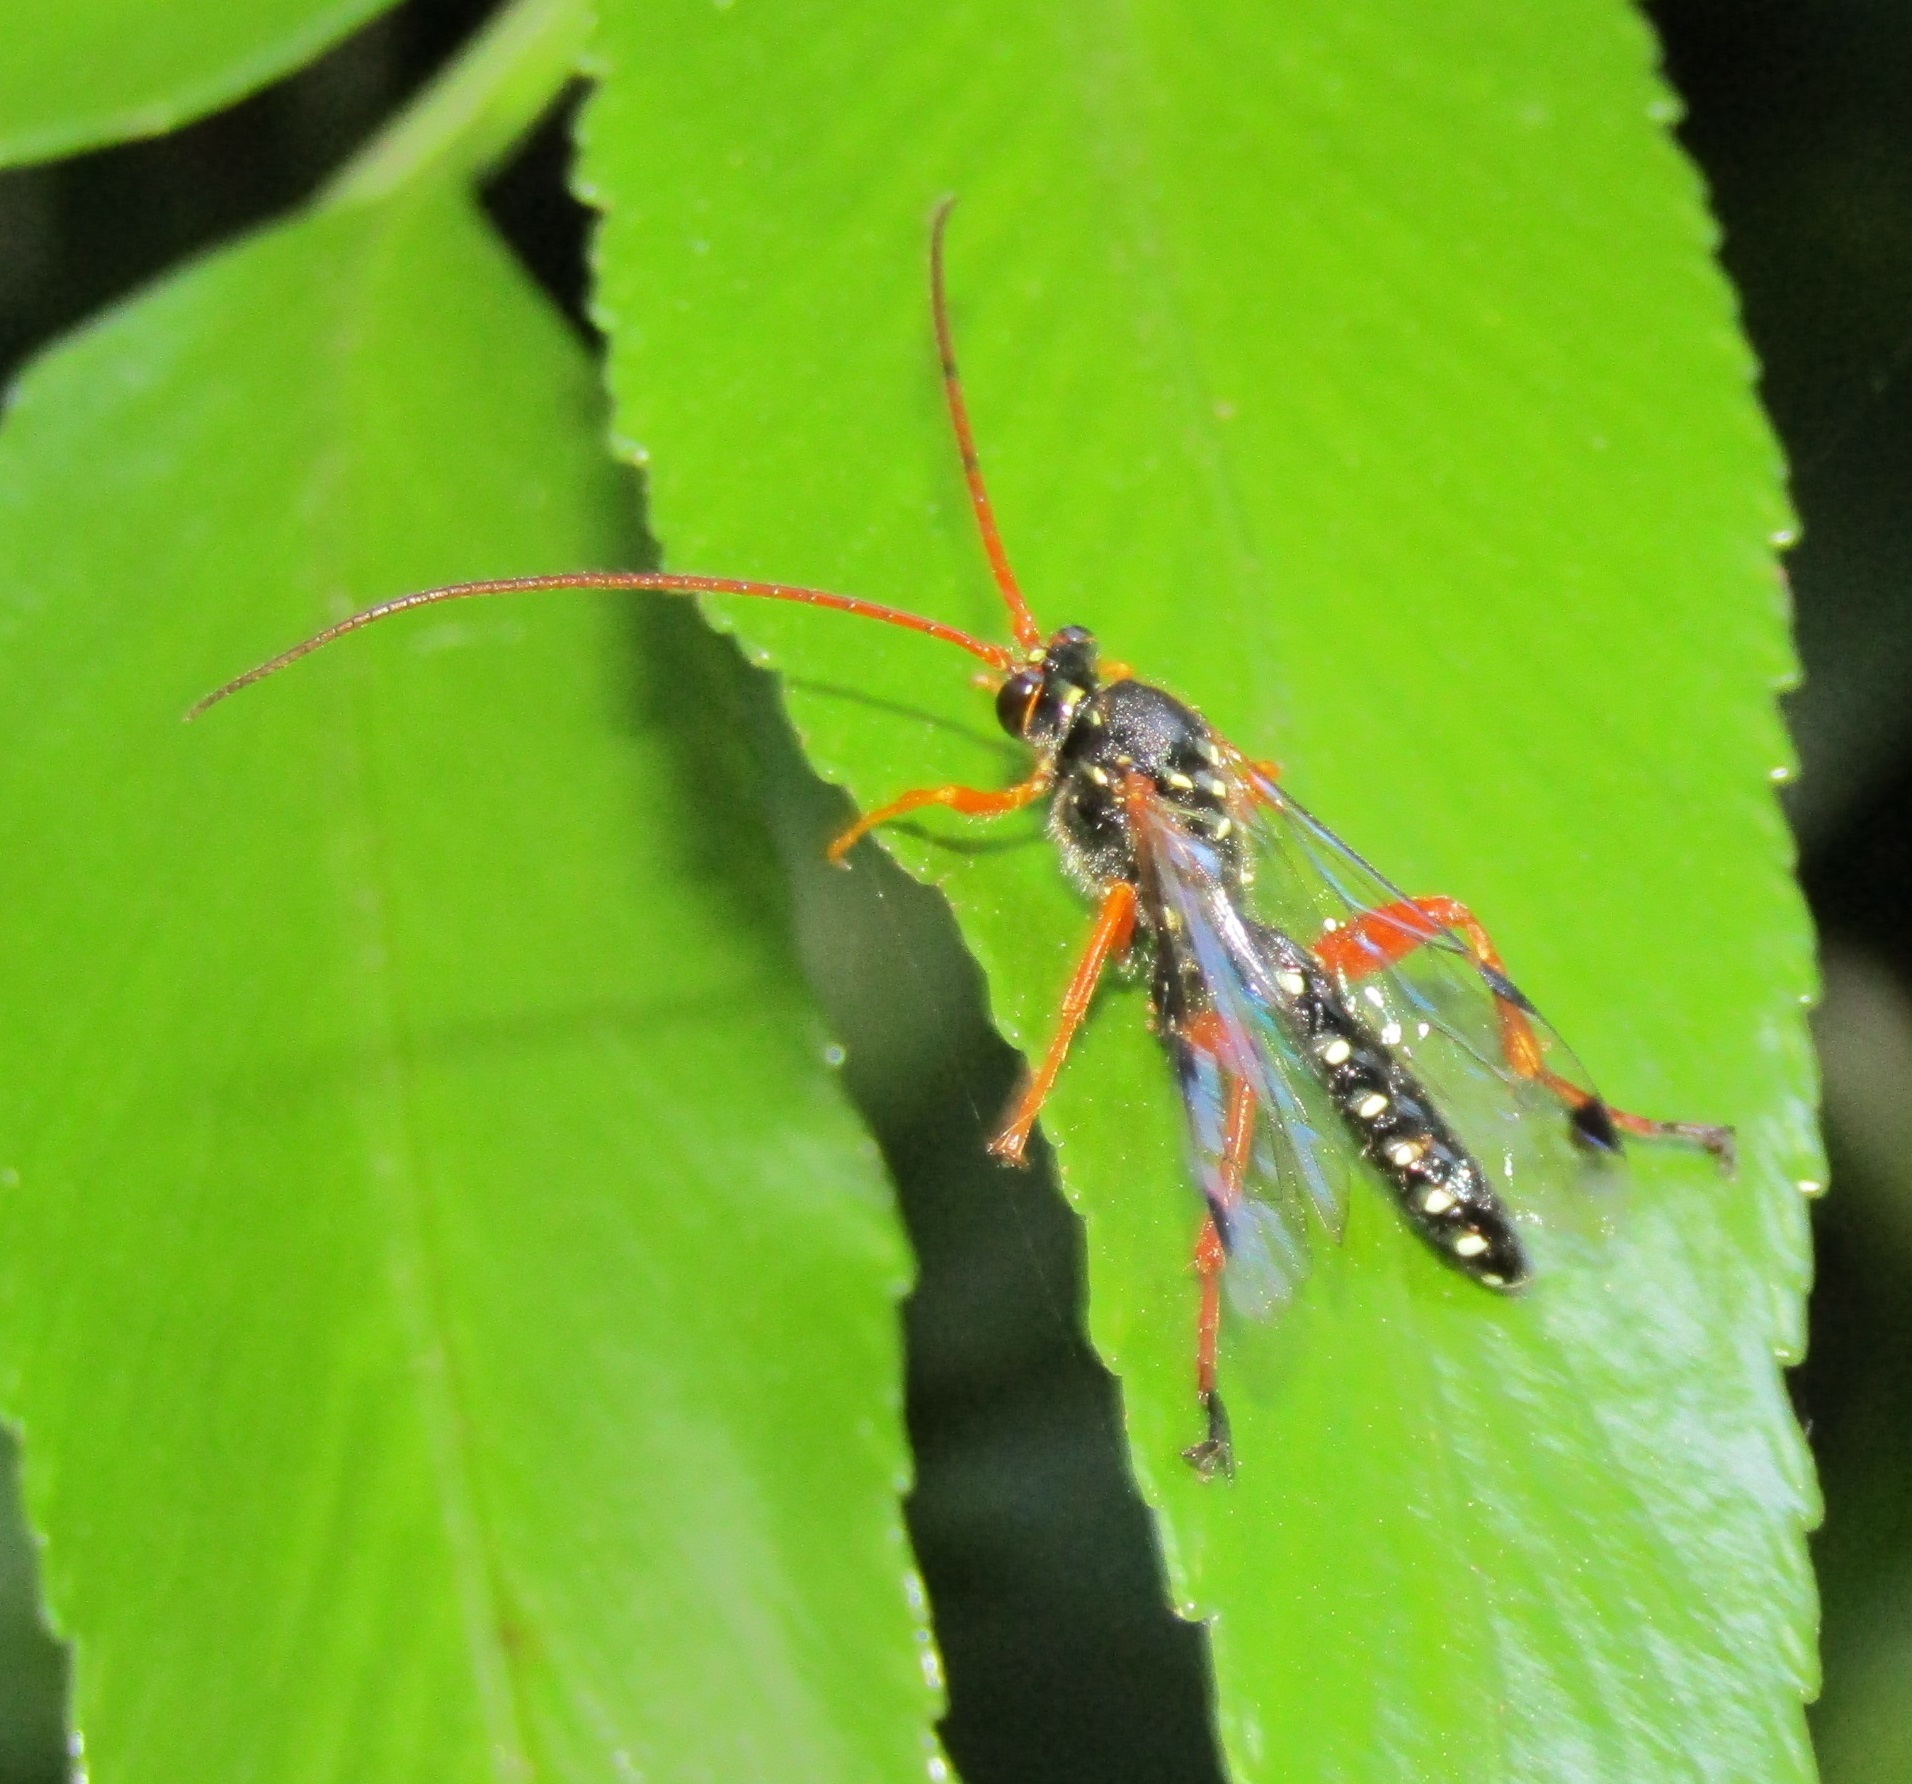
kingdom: Animalia
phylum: Arthropoda
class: Insecta
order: Hymenoptera
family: Ichneumonidae
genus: Echthromorpha
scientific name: Echthromorpha intricatoria
